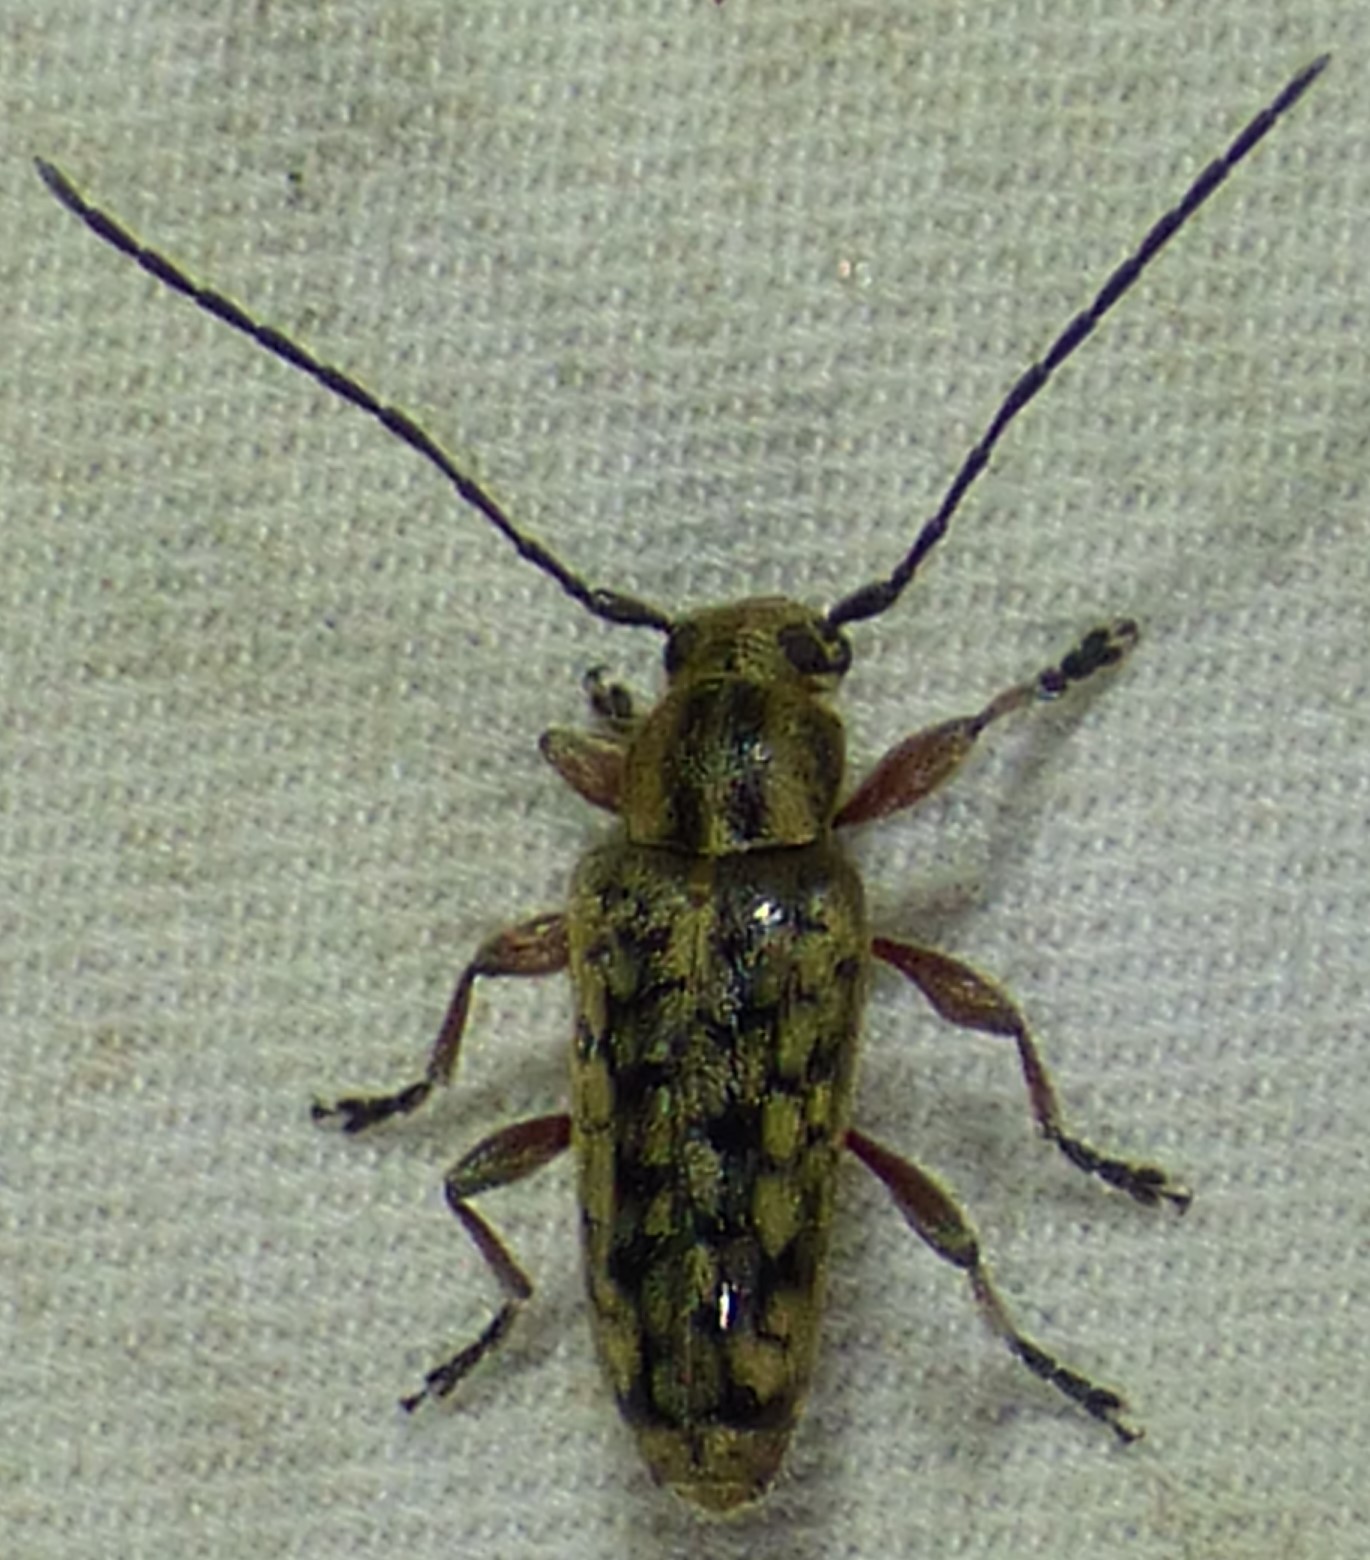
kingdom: Animalia
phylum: Arthropoda
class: Insecta
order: Coleoptera
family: Cerambycidae
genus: Atimia
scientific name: Atimia confusa
